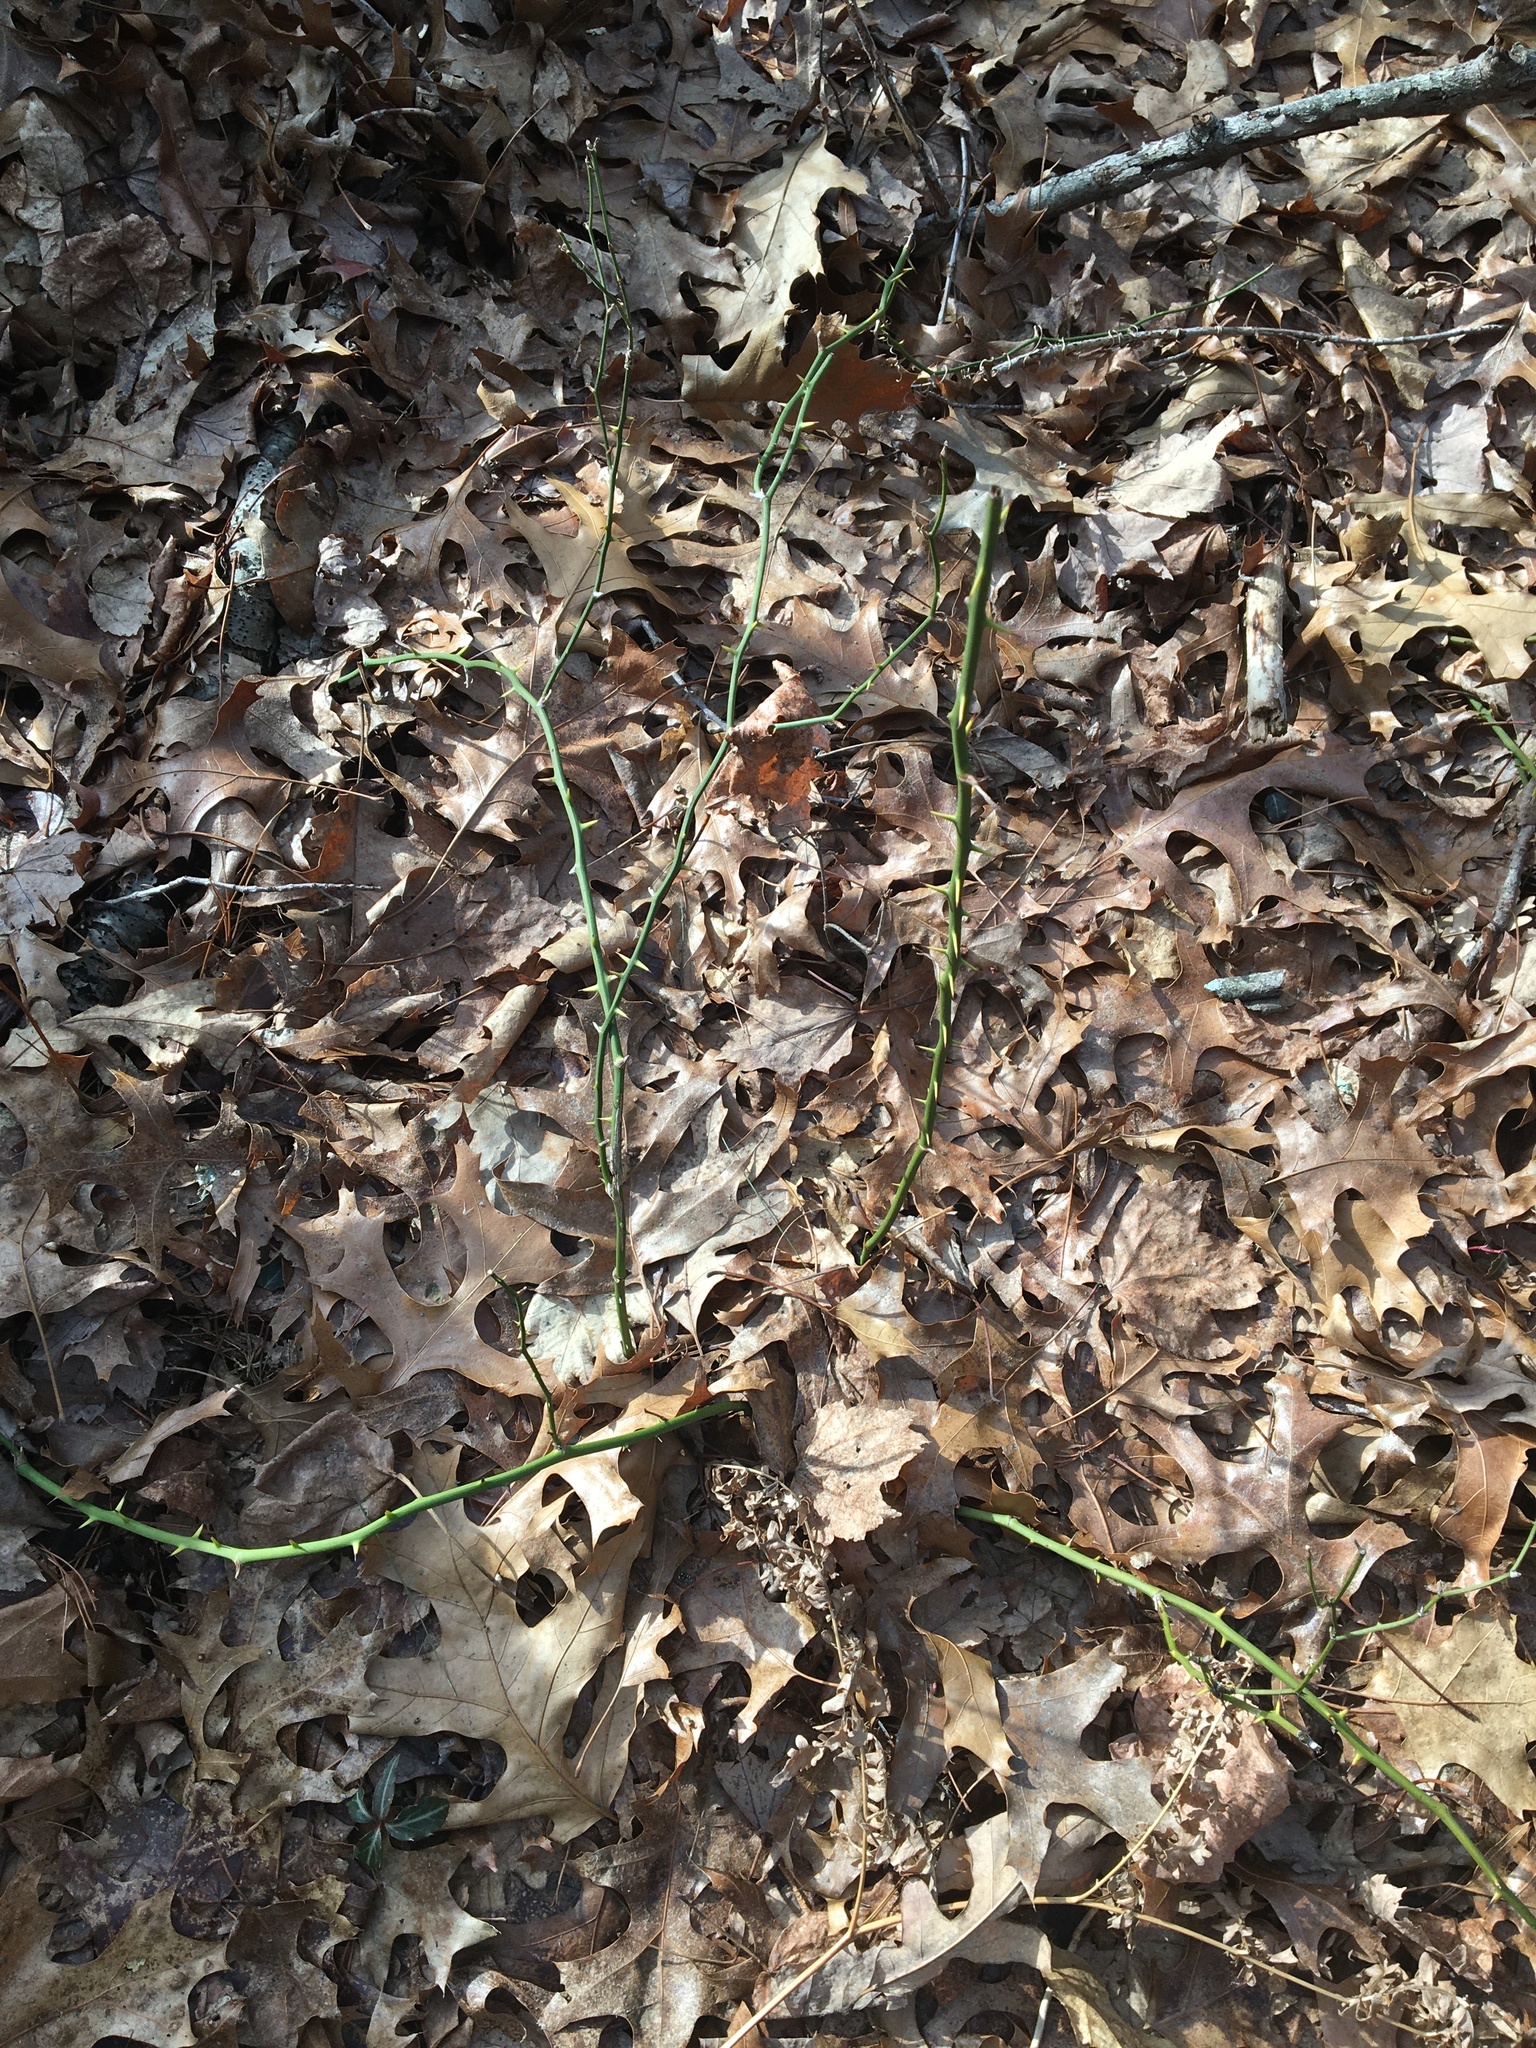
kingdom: Plantae
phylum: Tracheophyta
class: Liliopsida
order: Liliales
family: Smilacaceae
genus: Smilax
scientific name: Smilax rotundifolia
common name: Bullbriar
